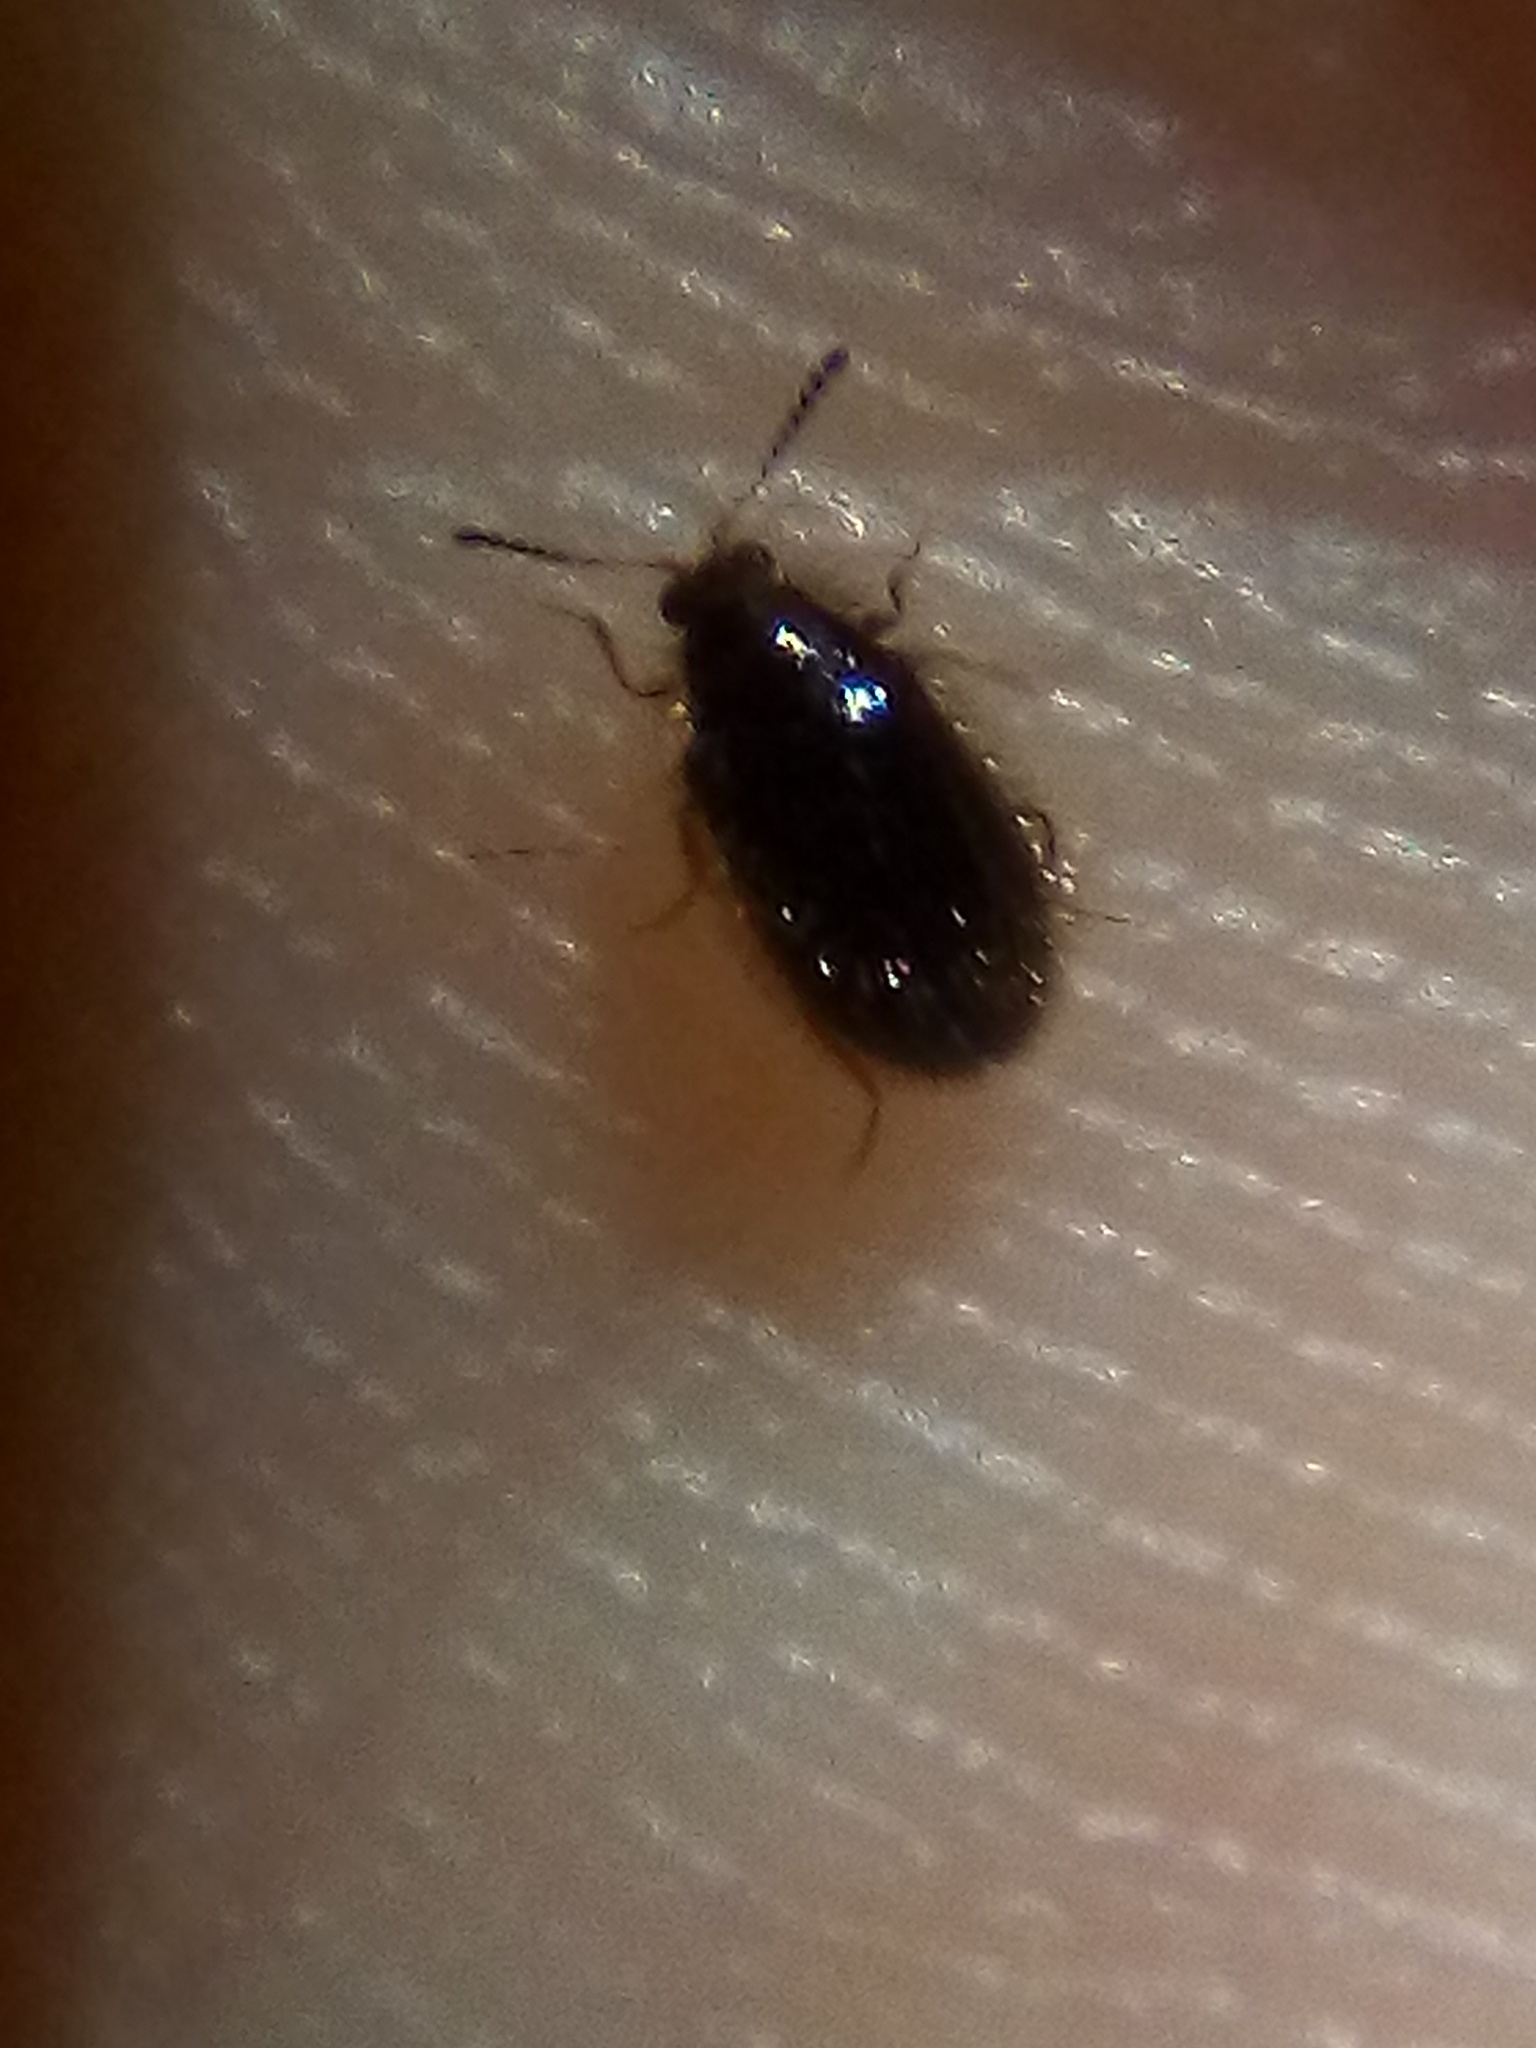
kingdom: Animalia
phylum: Arthropoda
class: Insecta
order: Coleoptera
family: Dermestidae
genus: Hexanodes
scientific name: Hexanodes
